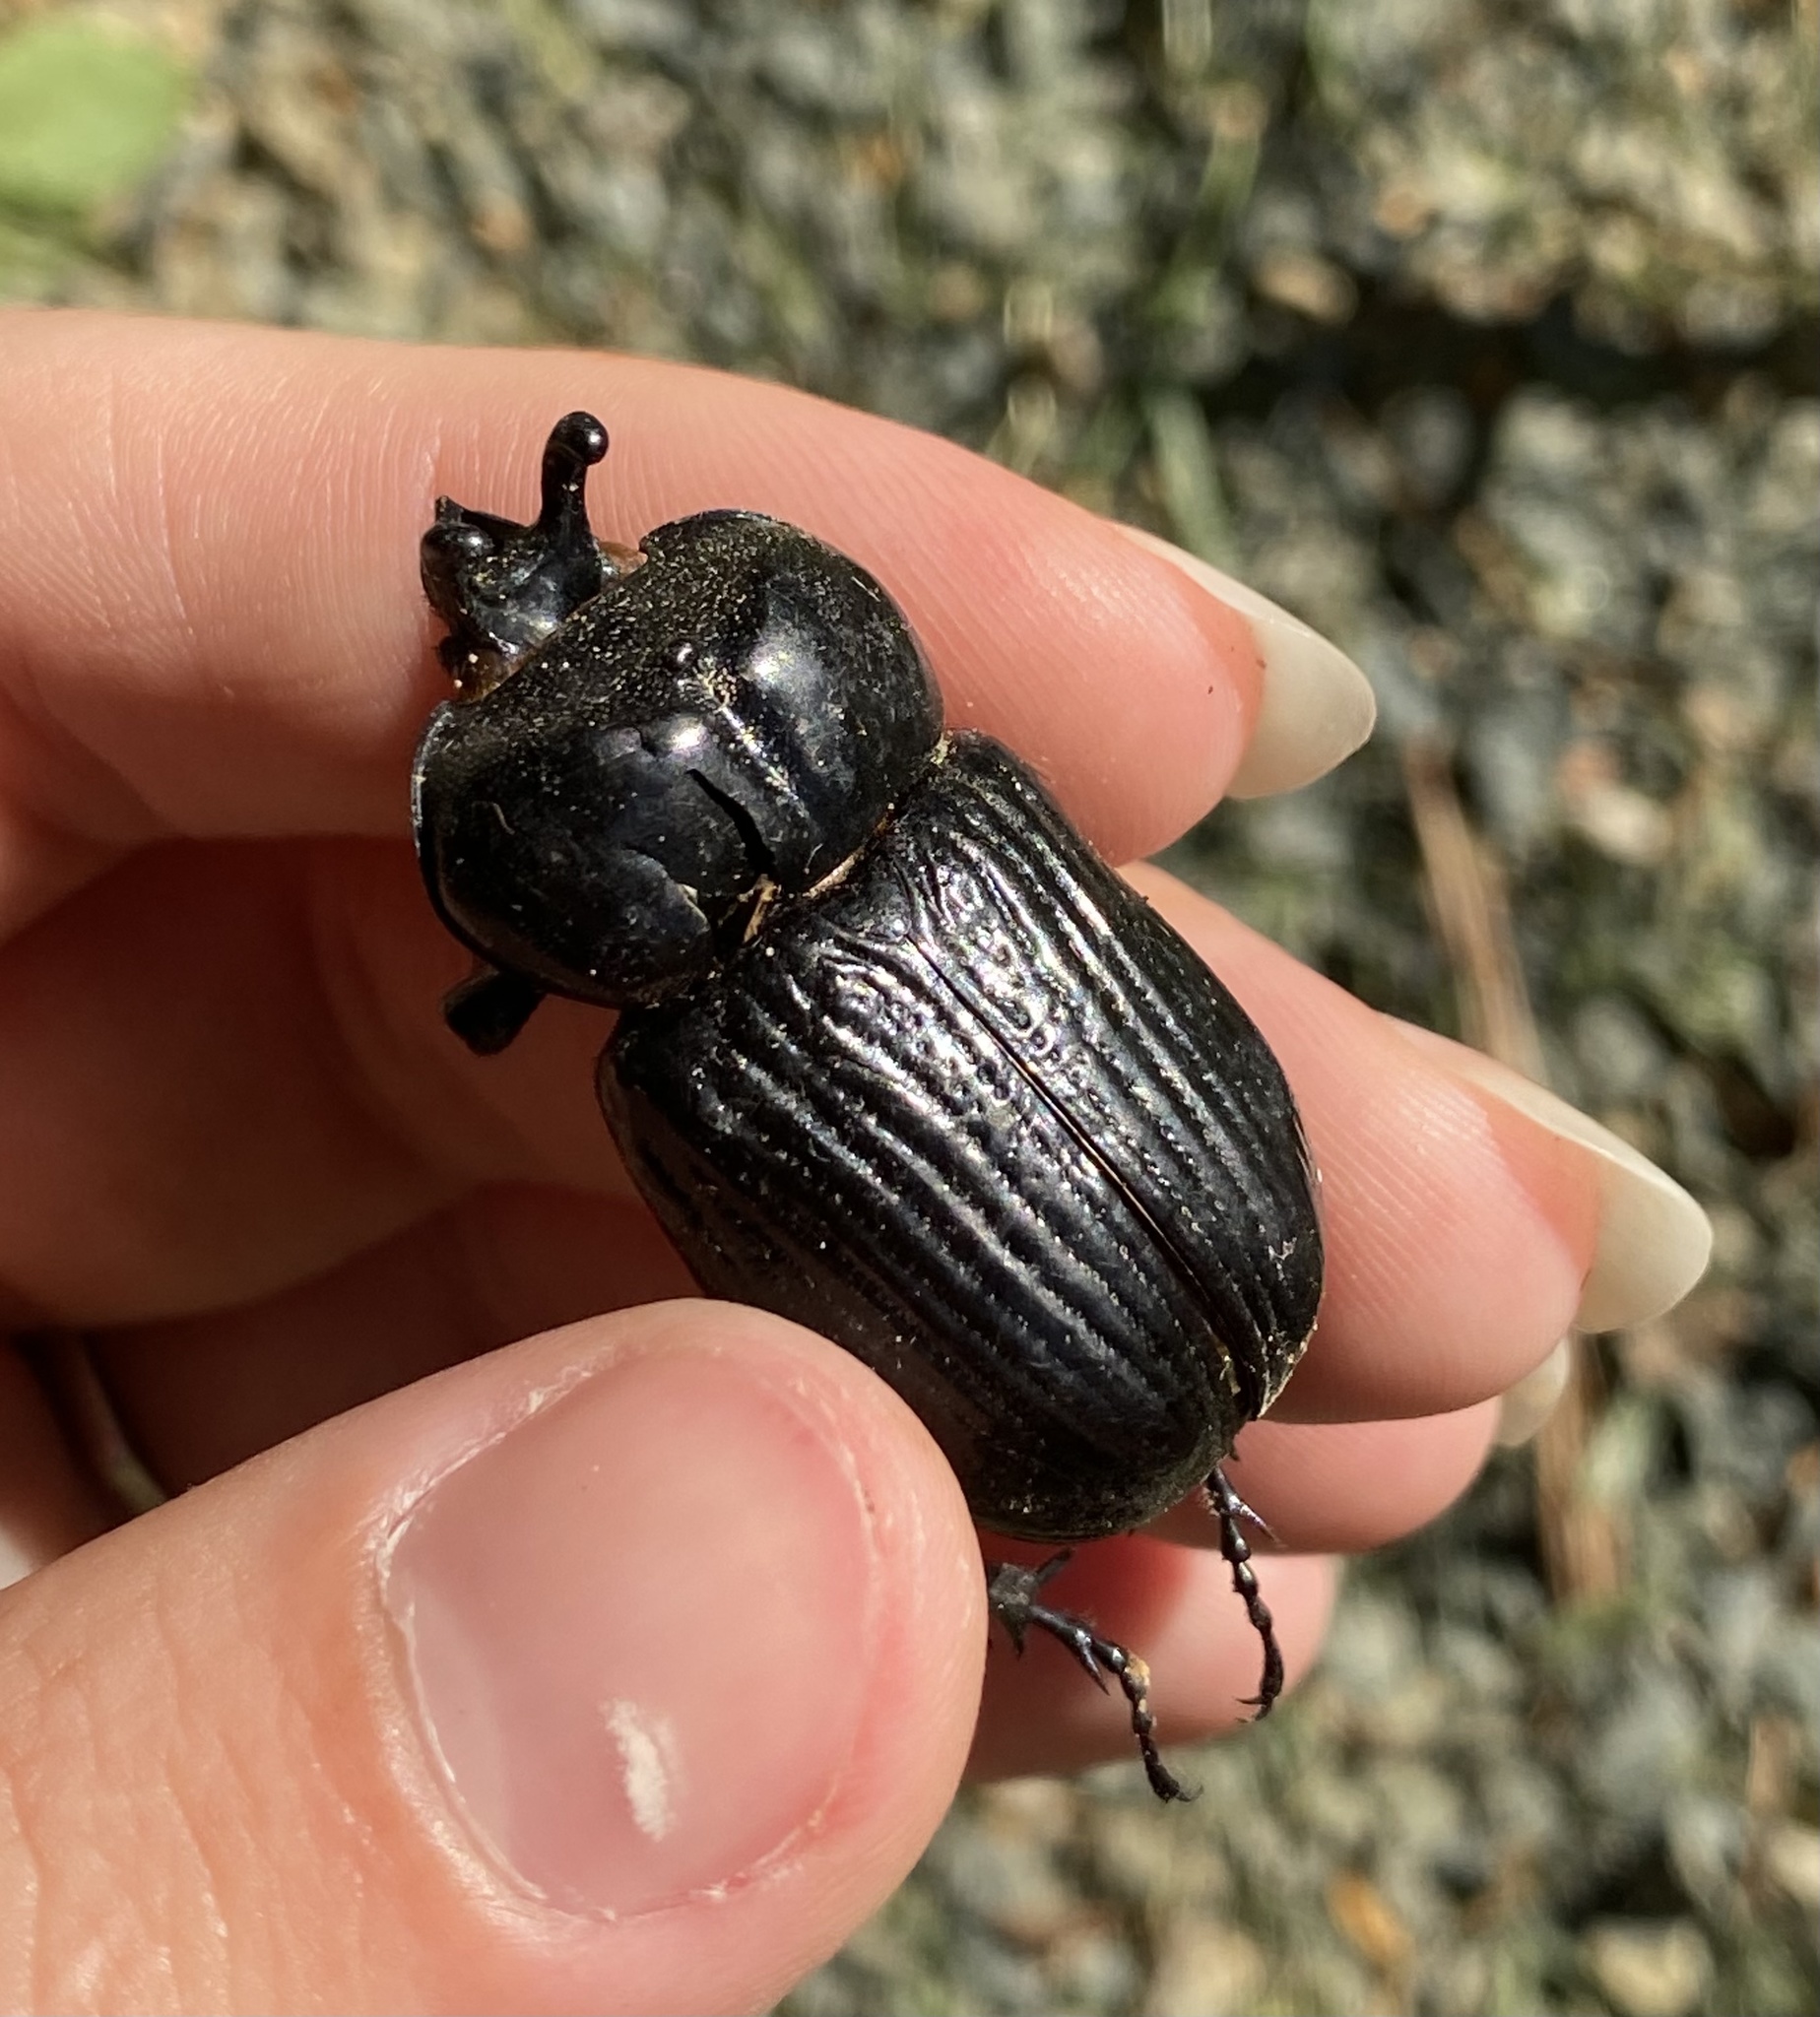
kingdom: Animalia
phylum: Arthropoda
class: Insecta
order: Coleoptera
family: Scarabaeidae
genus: Phileurus
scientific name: Phileurus truncatus
